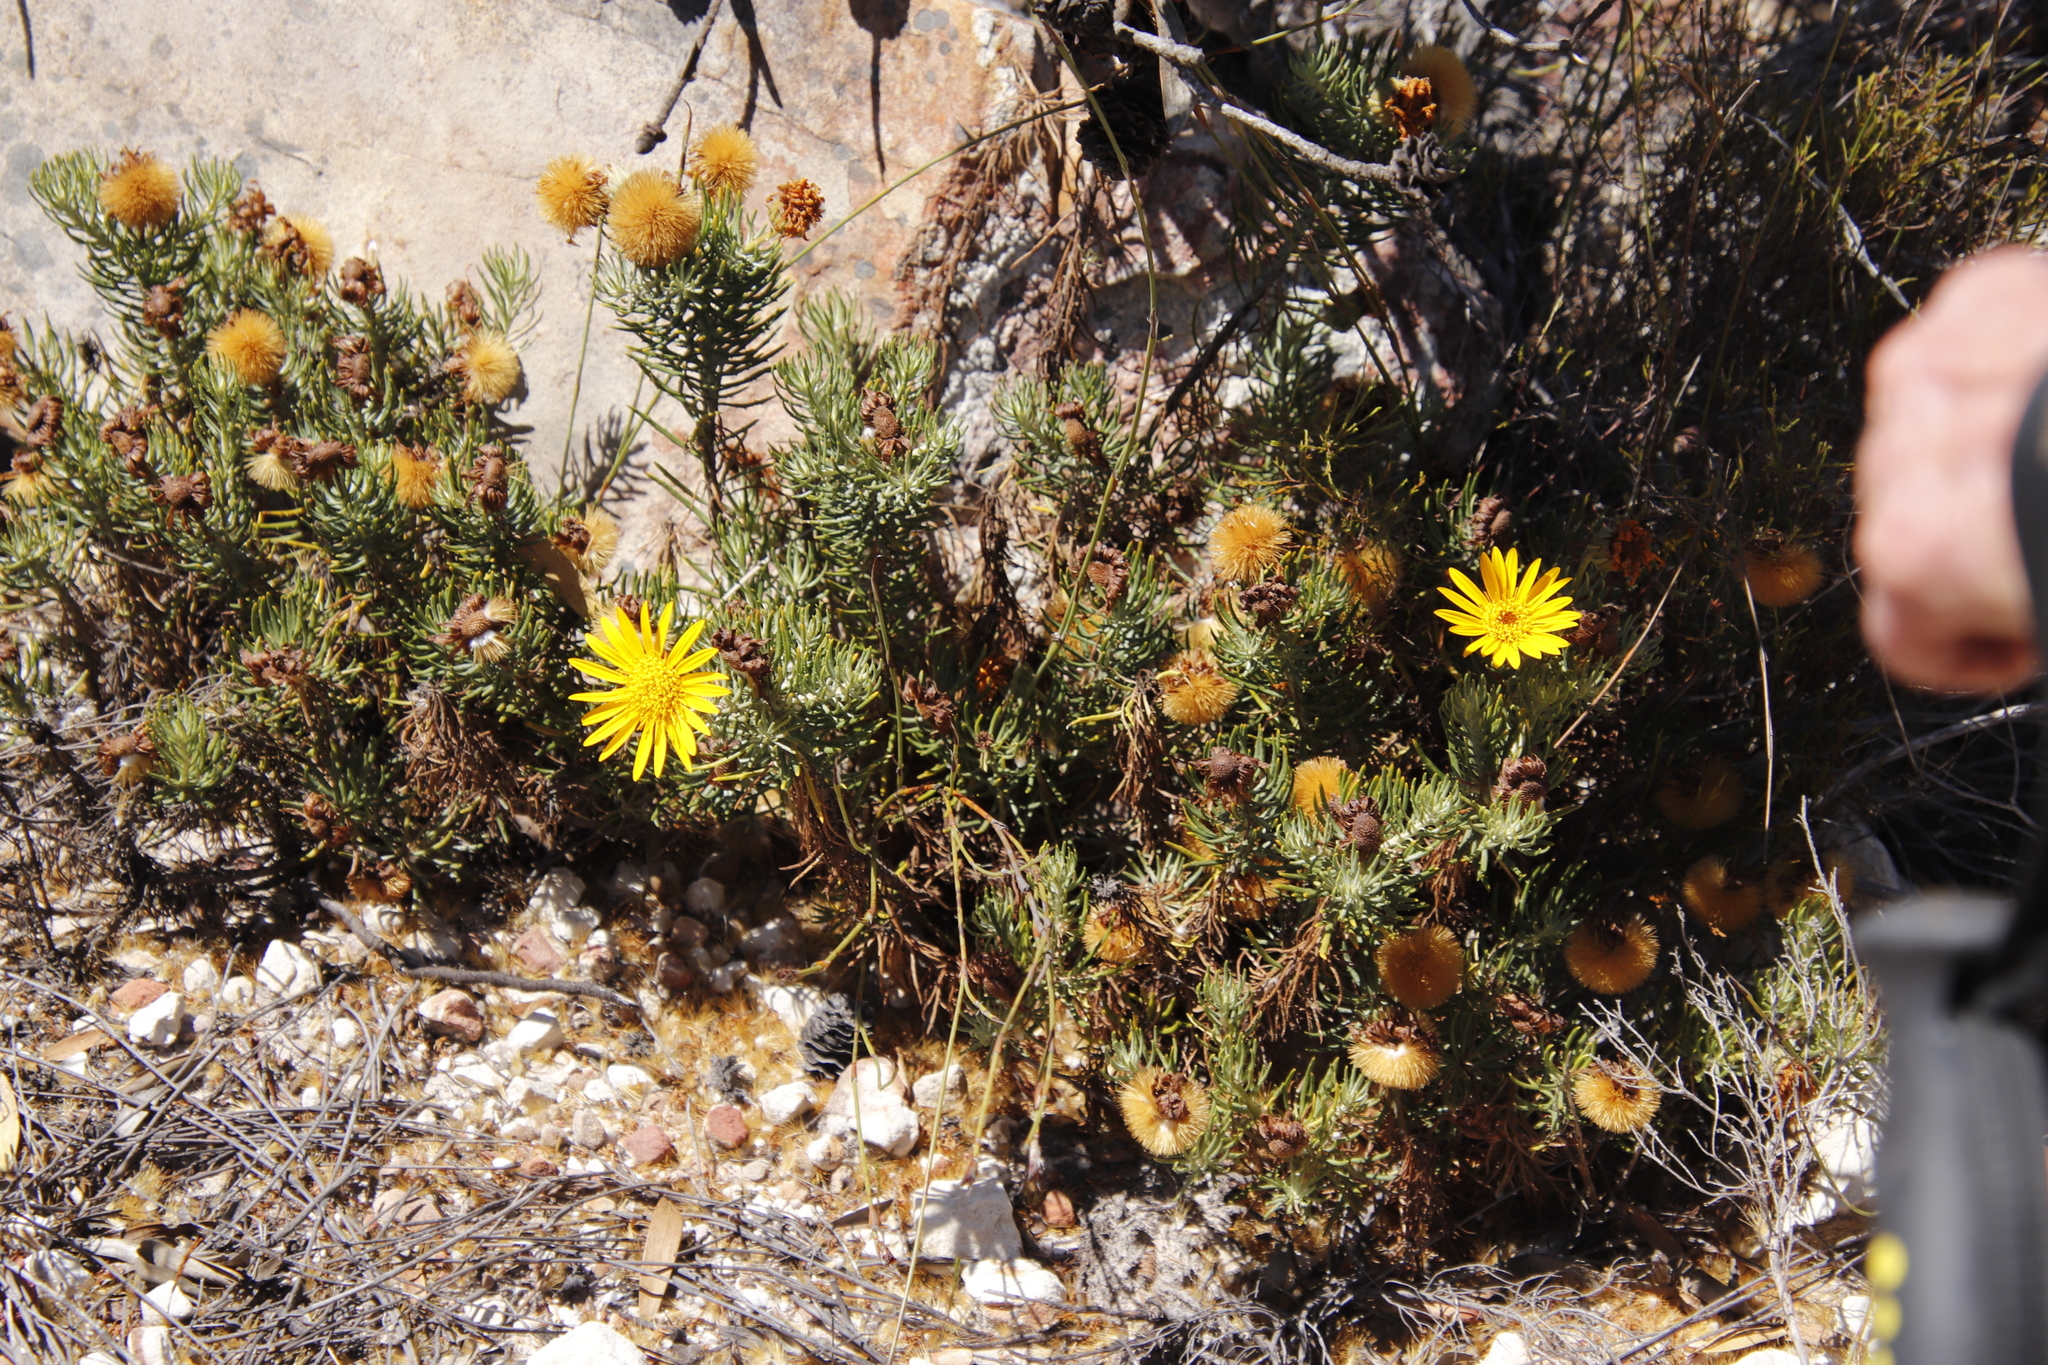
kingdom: Plantae
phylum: Tracheophyta
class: Magnoliopsida
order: Asterales
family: Asteraceae
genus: Heterolepis
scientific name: Heterolepis aliena
